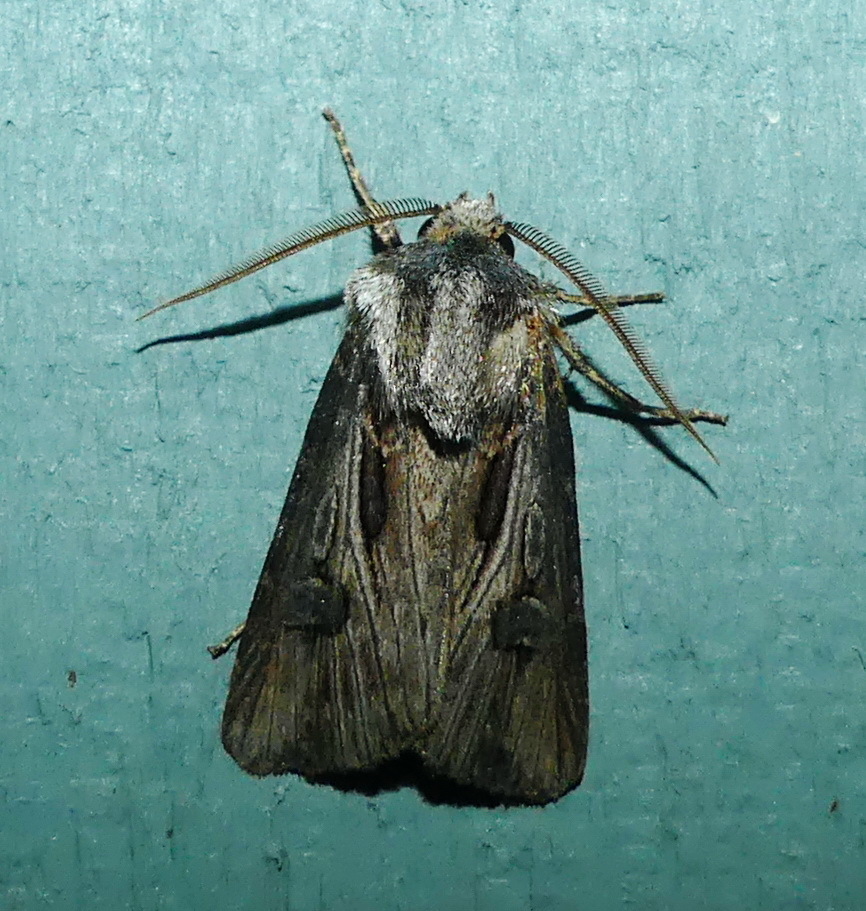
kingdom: Animalia
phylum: Arthropoda
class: Insecta
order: Lepidoptera
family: Noctuidae
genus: Agrotis
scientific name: Agrotis venerabilis
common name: Venerable dart
